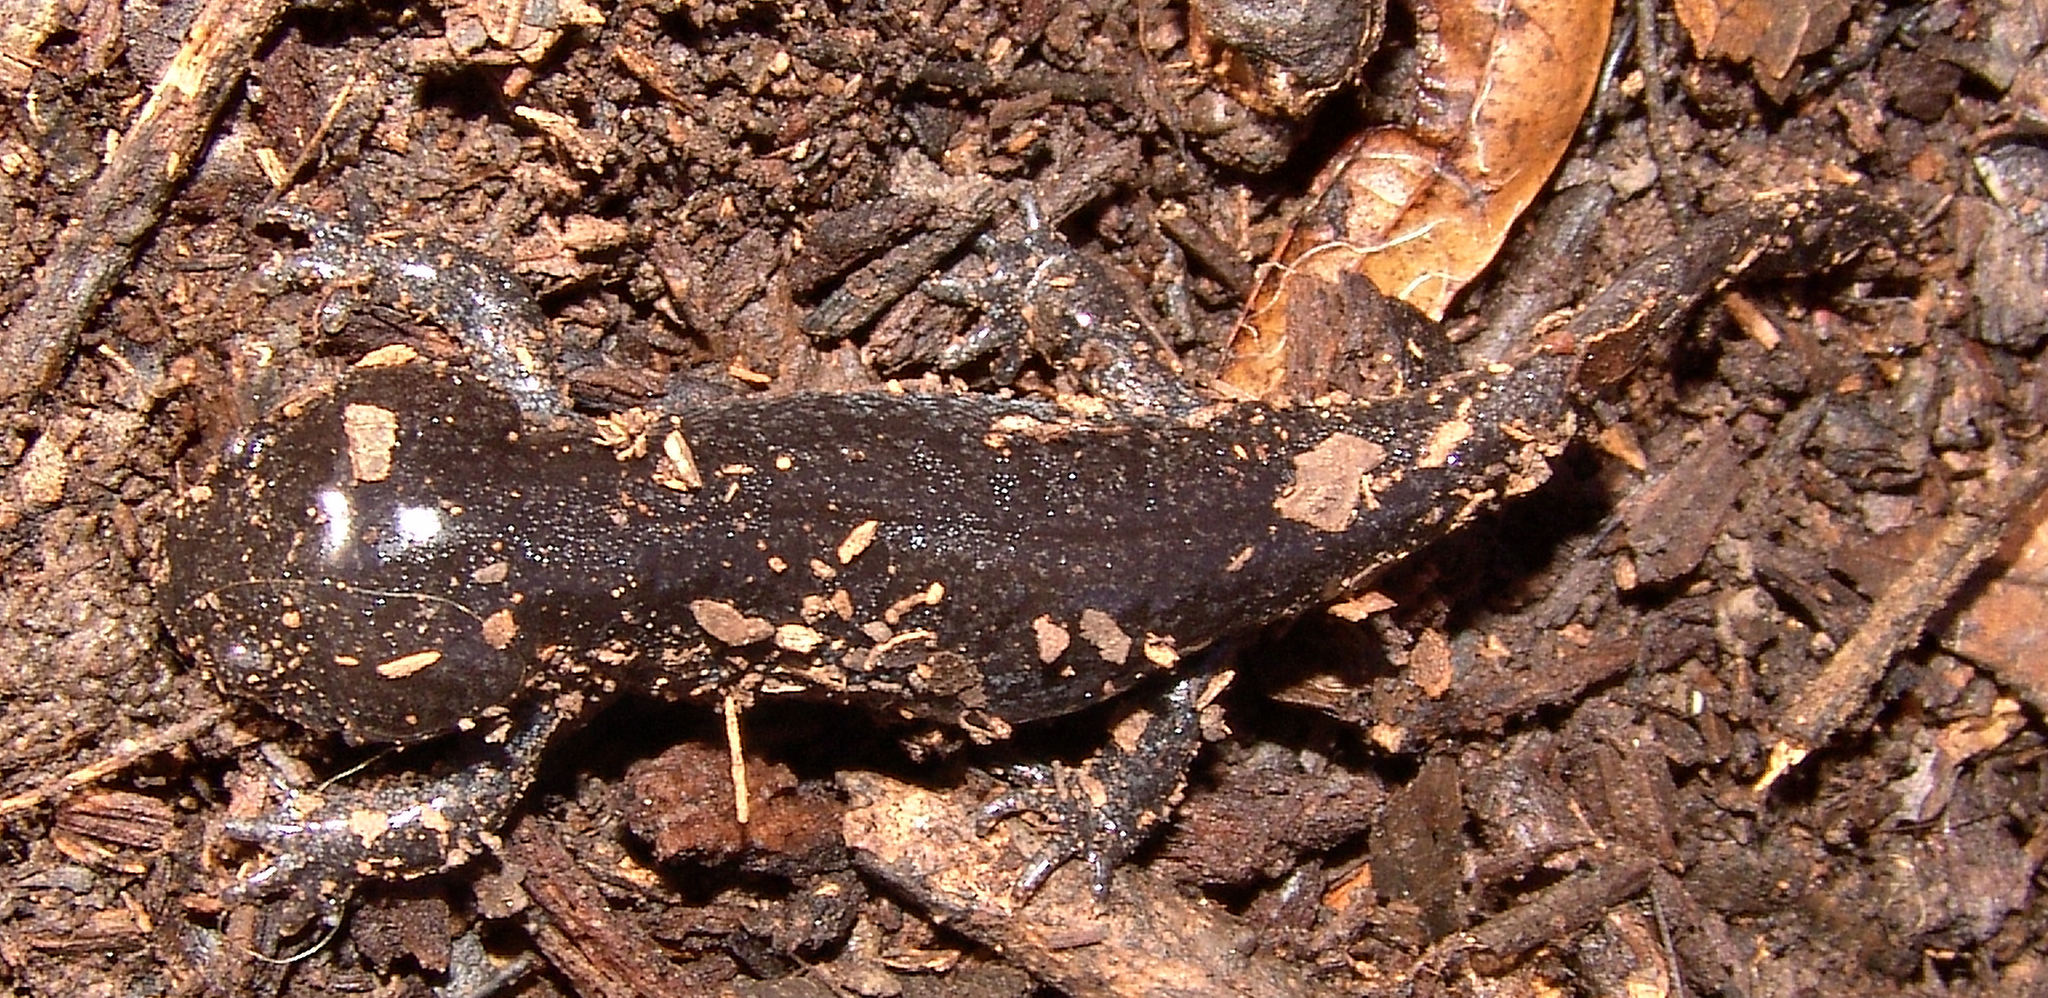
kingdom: Animalia
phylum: Chordata
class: Amphibia
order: Caudata
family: Ambystomatidae
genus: Ambystoma
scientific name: Ambystoma talpoideum
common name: Mole salamander
